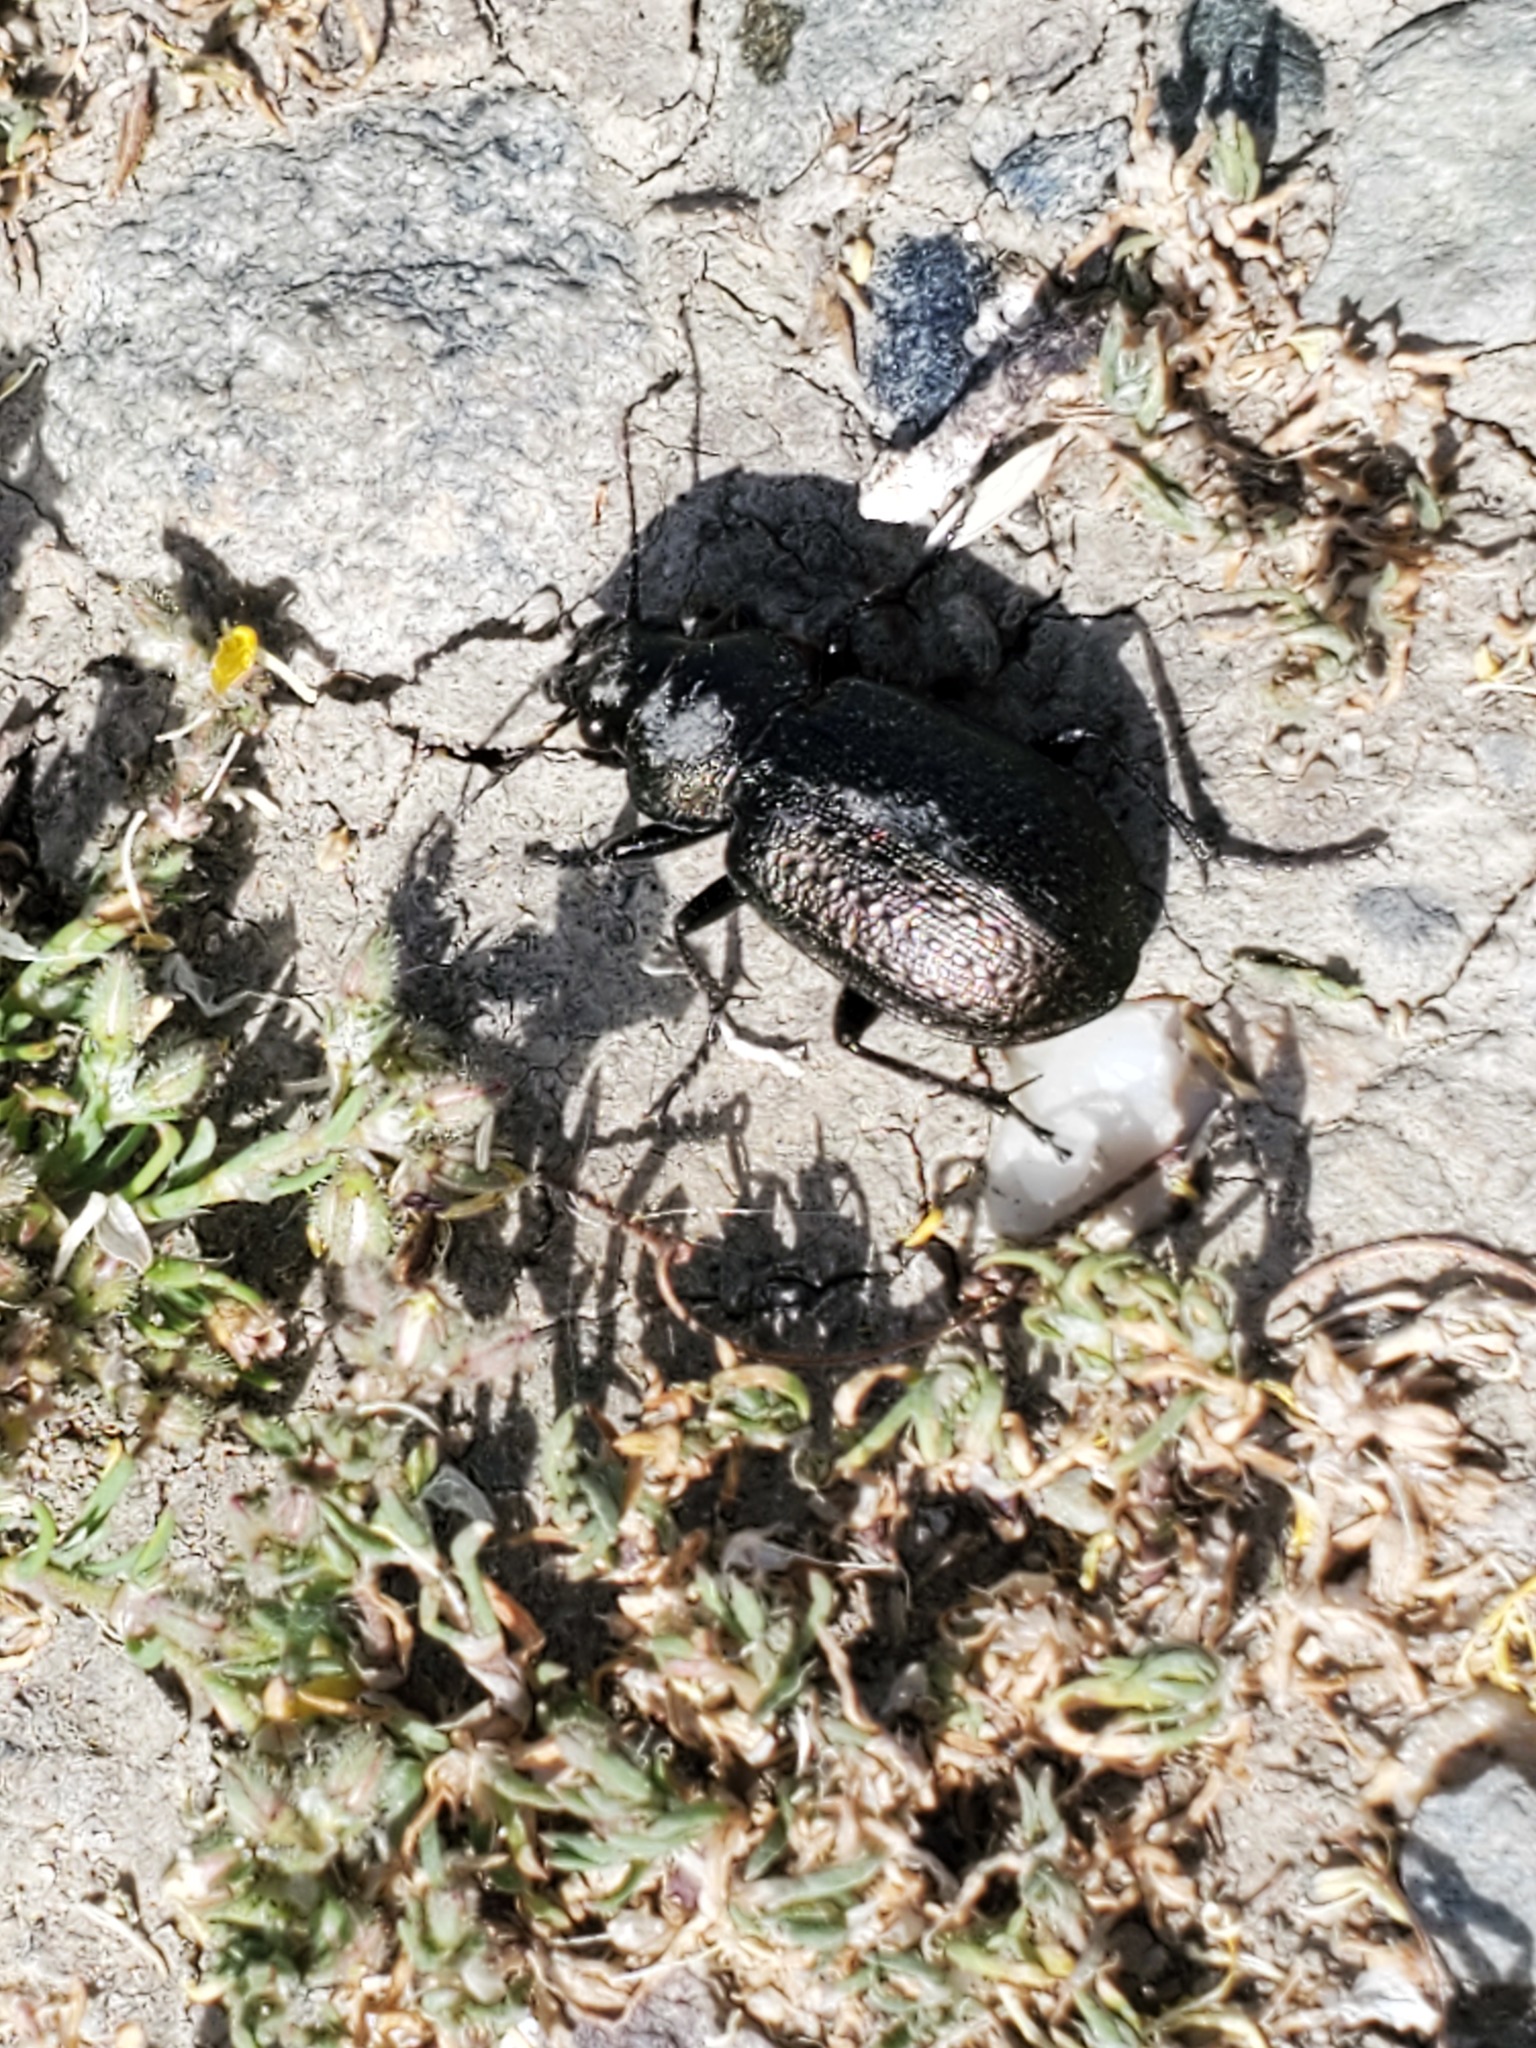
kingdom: Animalia
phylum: Arthropoda
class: Insecta
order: Coleoptera
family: Carabidae
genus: Calosoma
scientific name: Calosoma cancellatum
